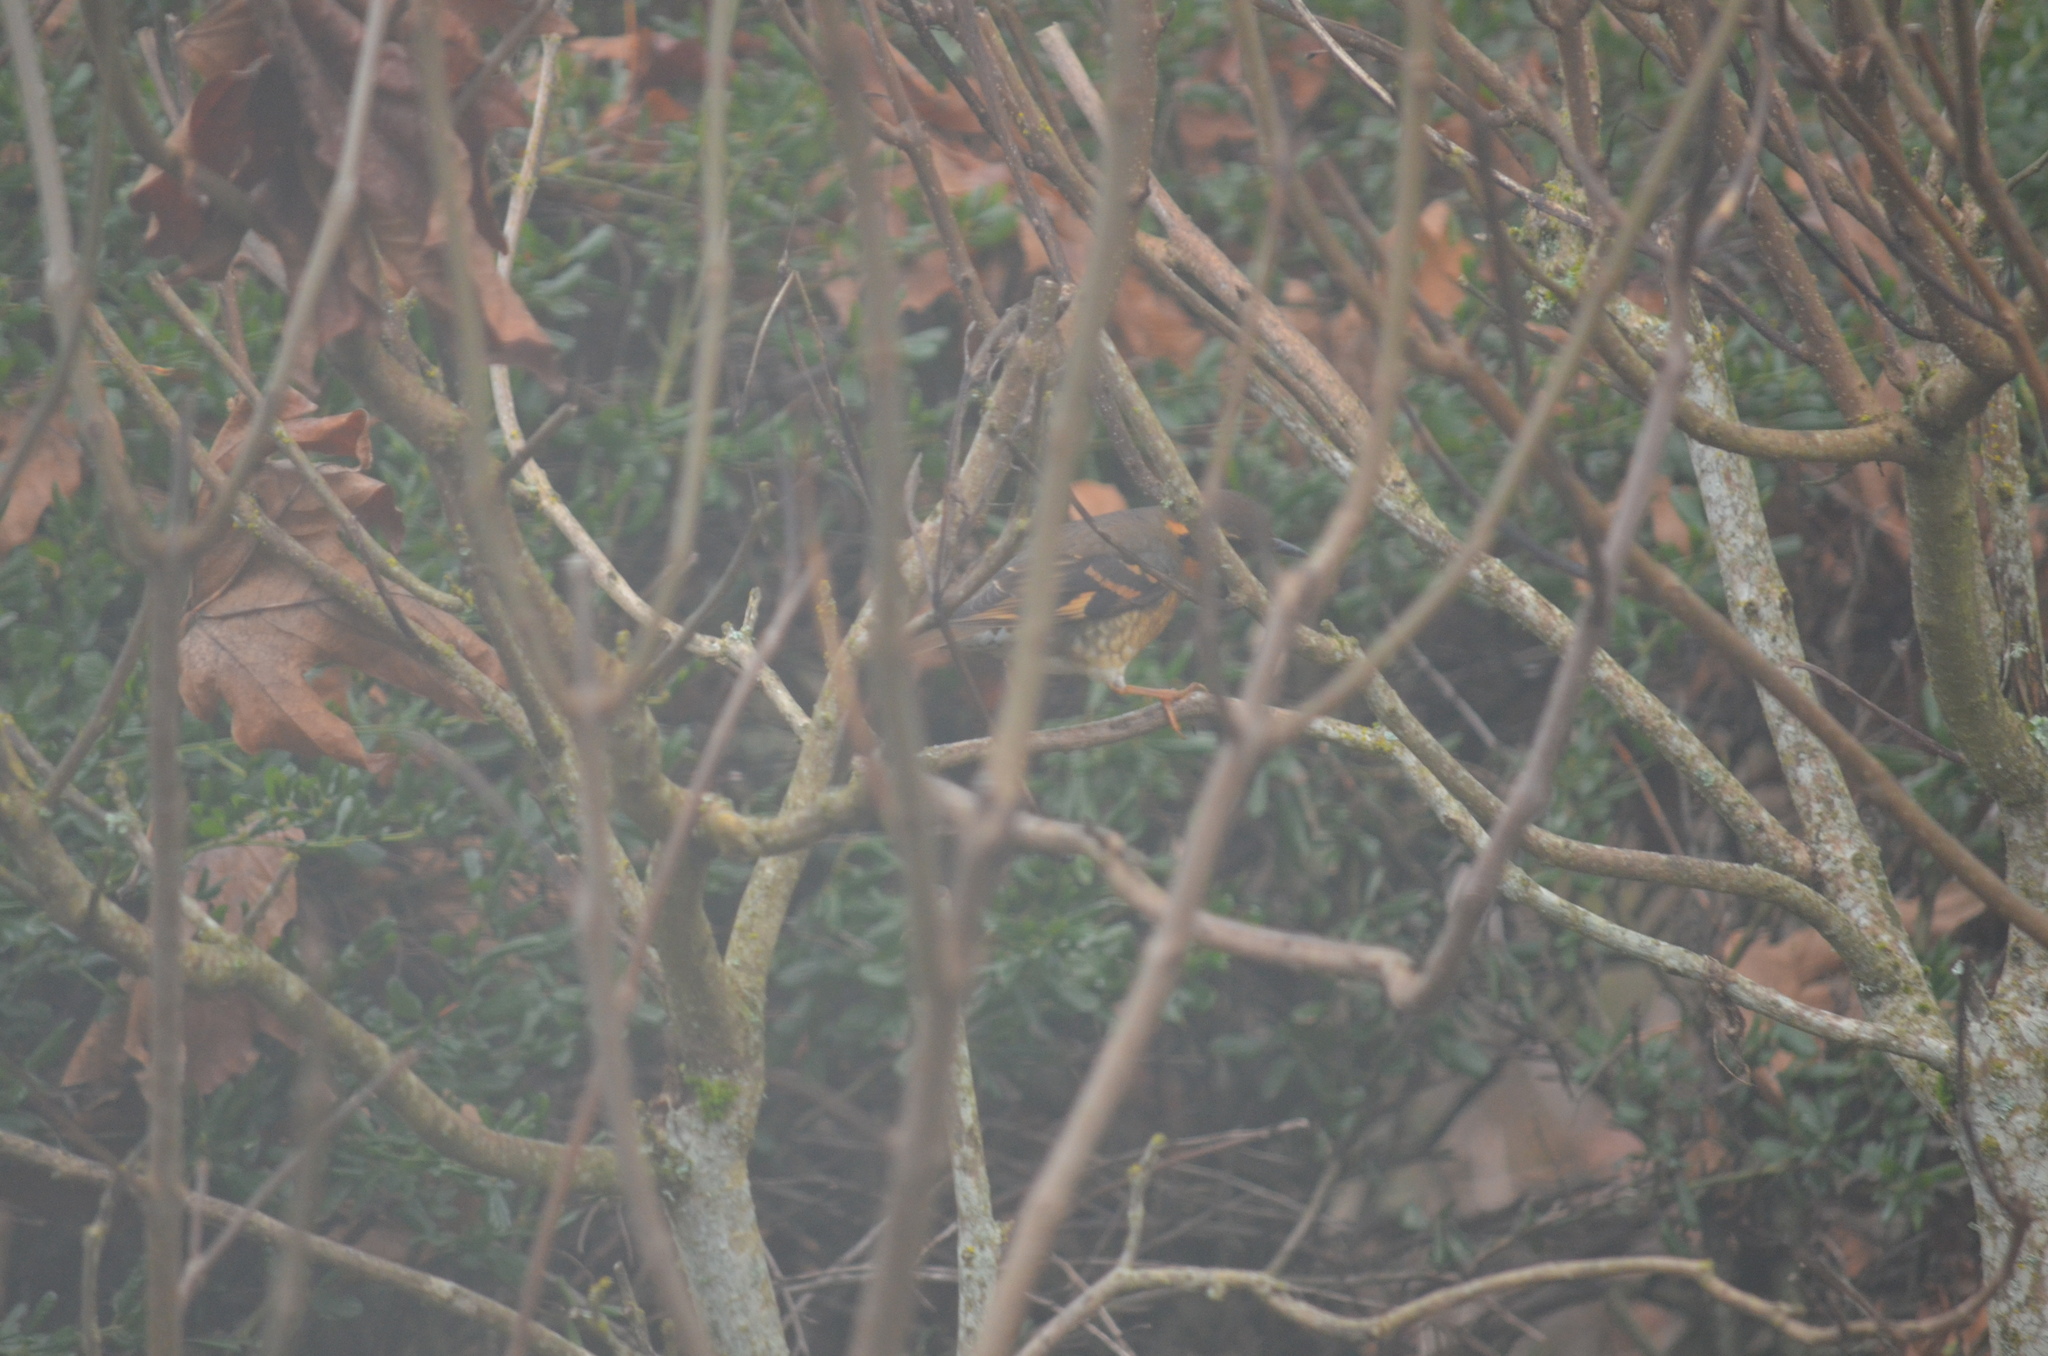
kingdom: Animalia
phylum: Chordata
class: Aves
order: Passeriformes
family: Turdidae
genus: Ixoreus
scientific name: Ixoreus naevius
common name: Varied thrush
